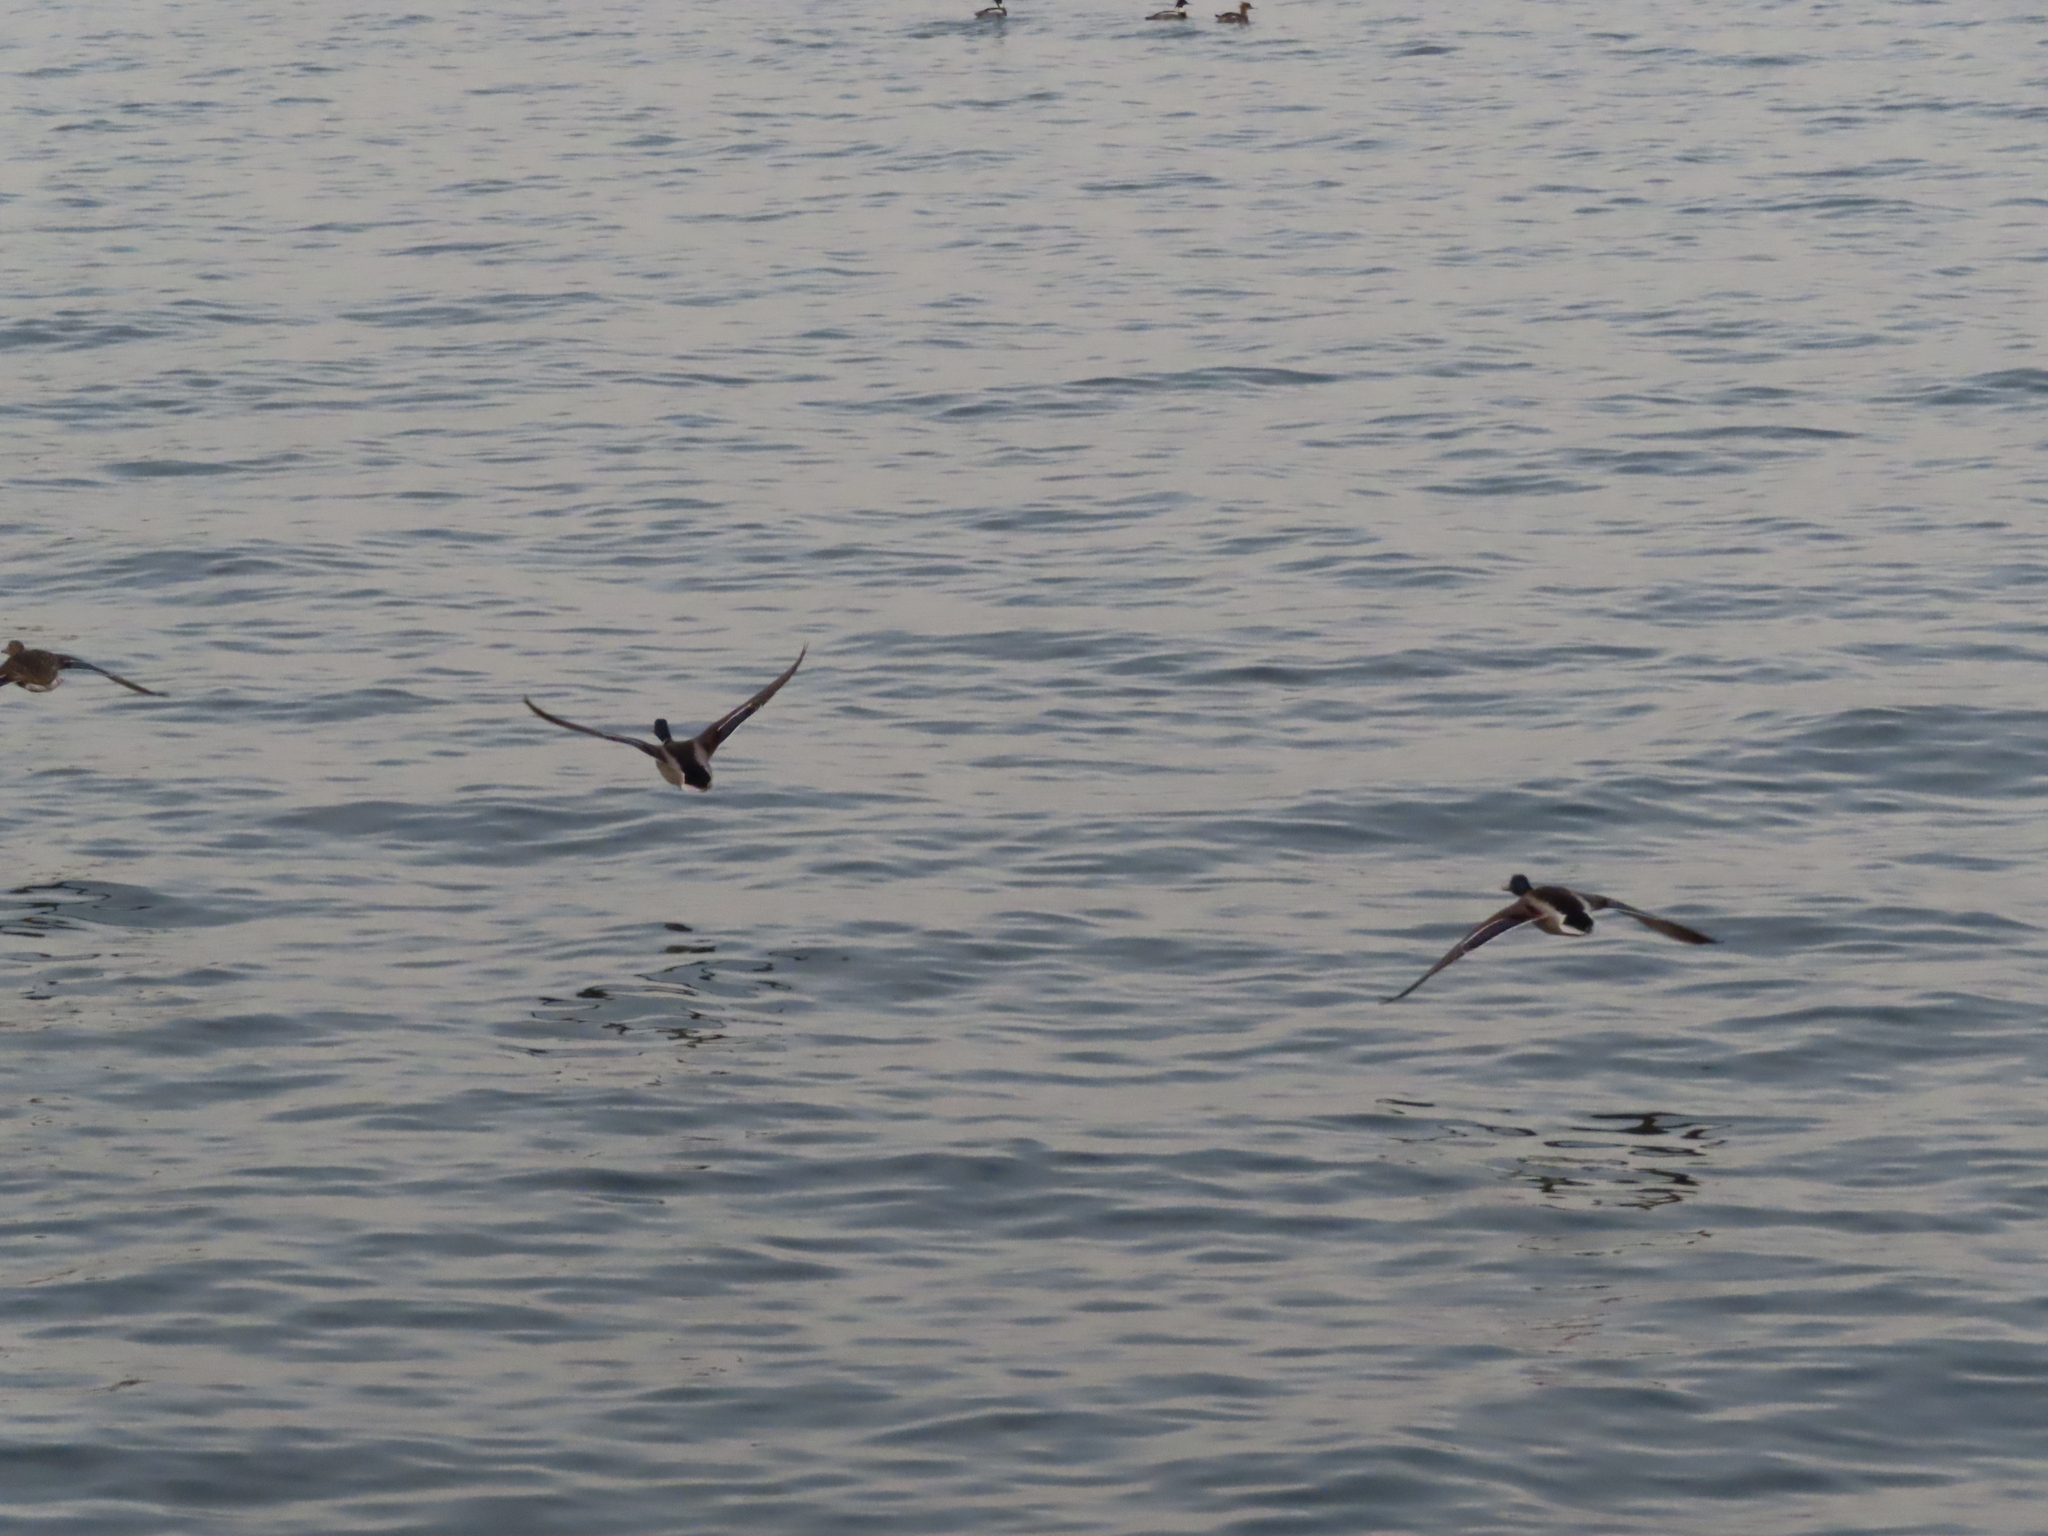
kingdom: Animalia
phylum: Chordata
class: Aves
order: Anseriformes
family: Anatidae
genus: Anas
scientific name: Anas platyrhynchos
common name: Mallard
